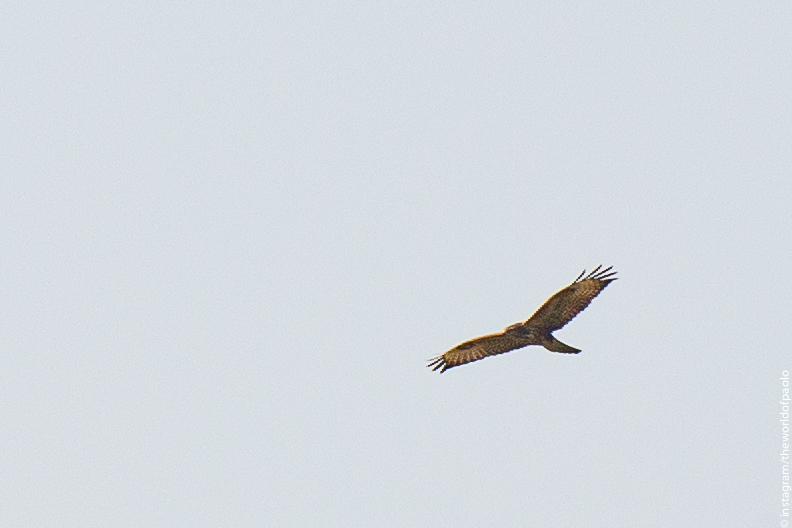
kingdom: Animalia
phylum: Chordata
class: Aves
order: Accipitriformes
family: Accipitridae
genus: Buteo
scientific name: Buteo buteo
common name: Common buzzard
